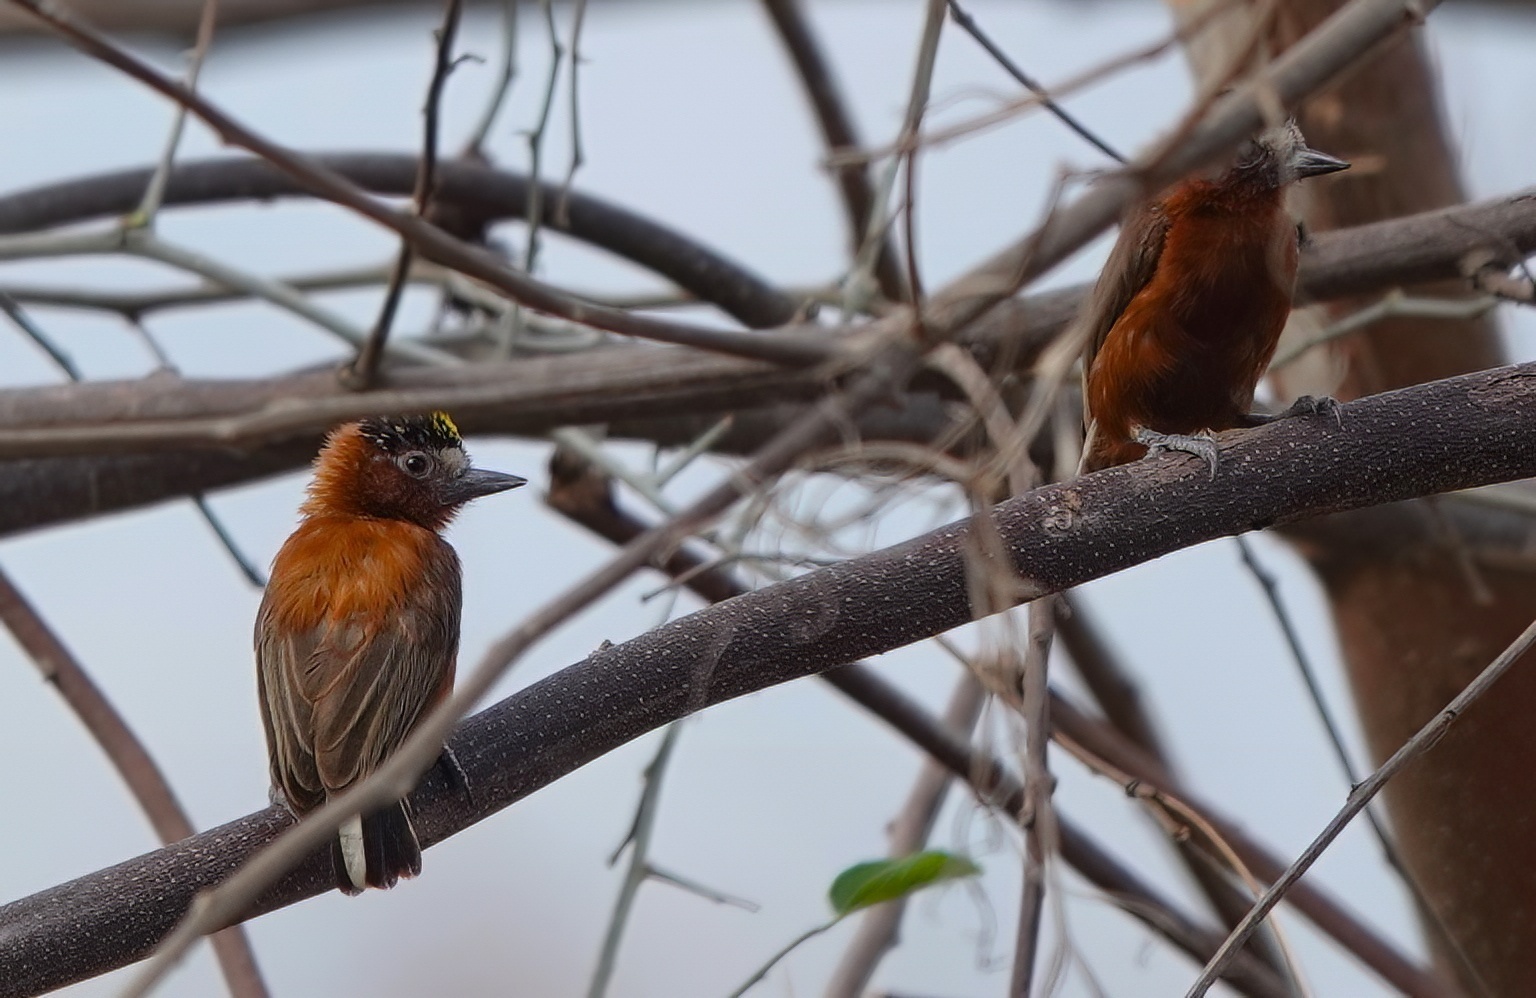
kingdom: Animalia
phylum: Chordata
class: Aves
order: Piciformes
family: Picidae
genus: Picumnus
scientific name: Picumnus cinnamomeus
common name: Chestnut piculet
